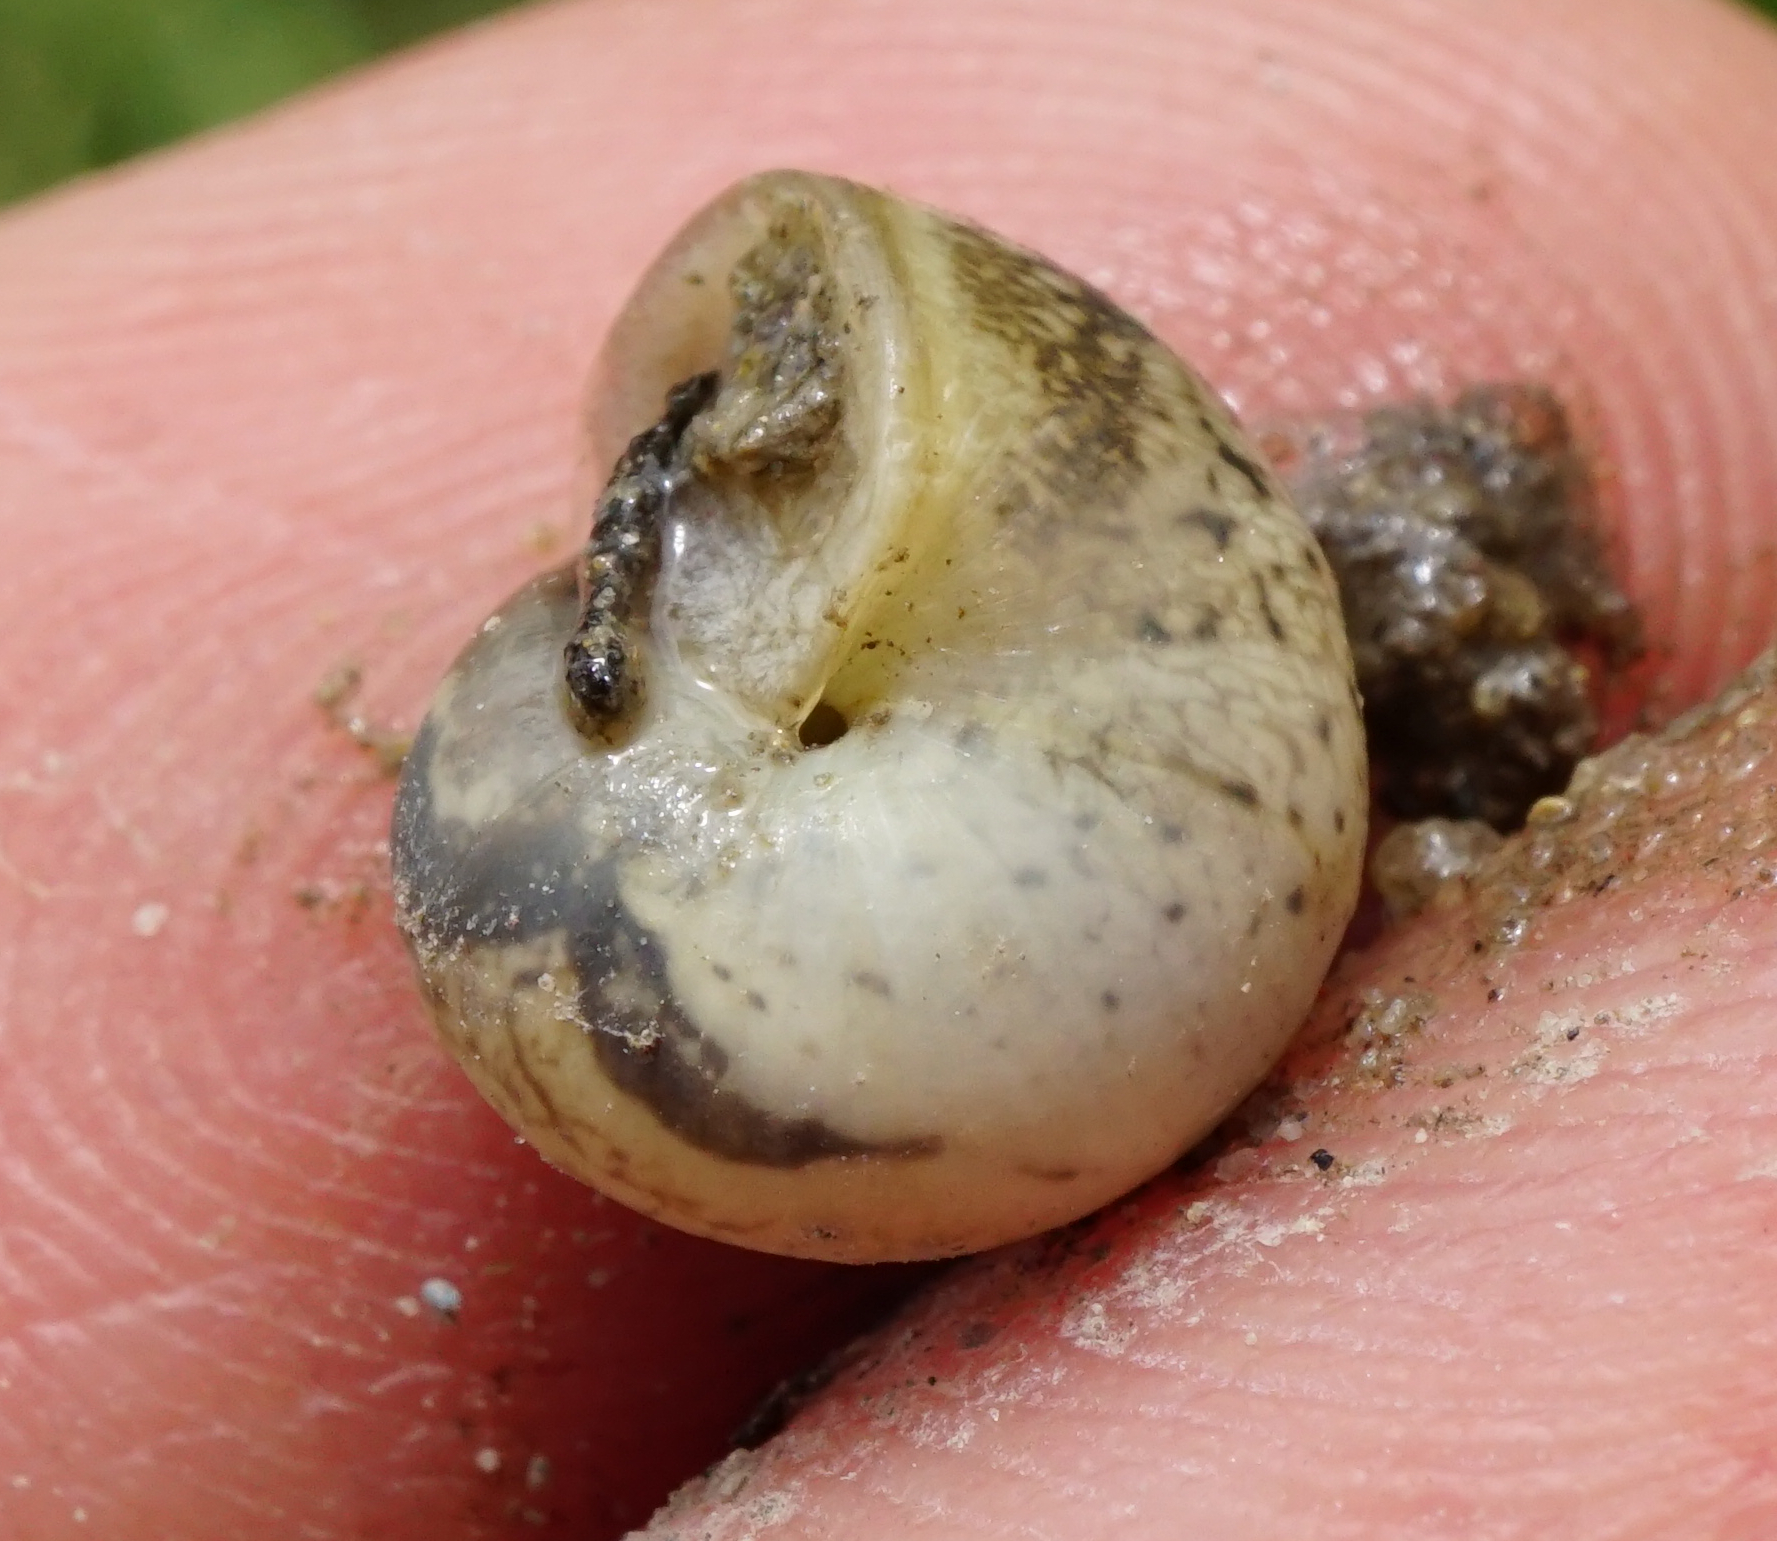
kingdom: Animalia
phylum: Mollusca
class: Gastropoda
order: Stylommatophora
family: Hygromiidae
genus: Monacha
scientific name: Monacha
